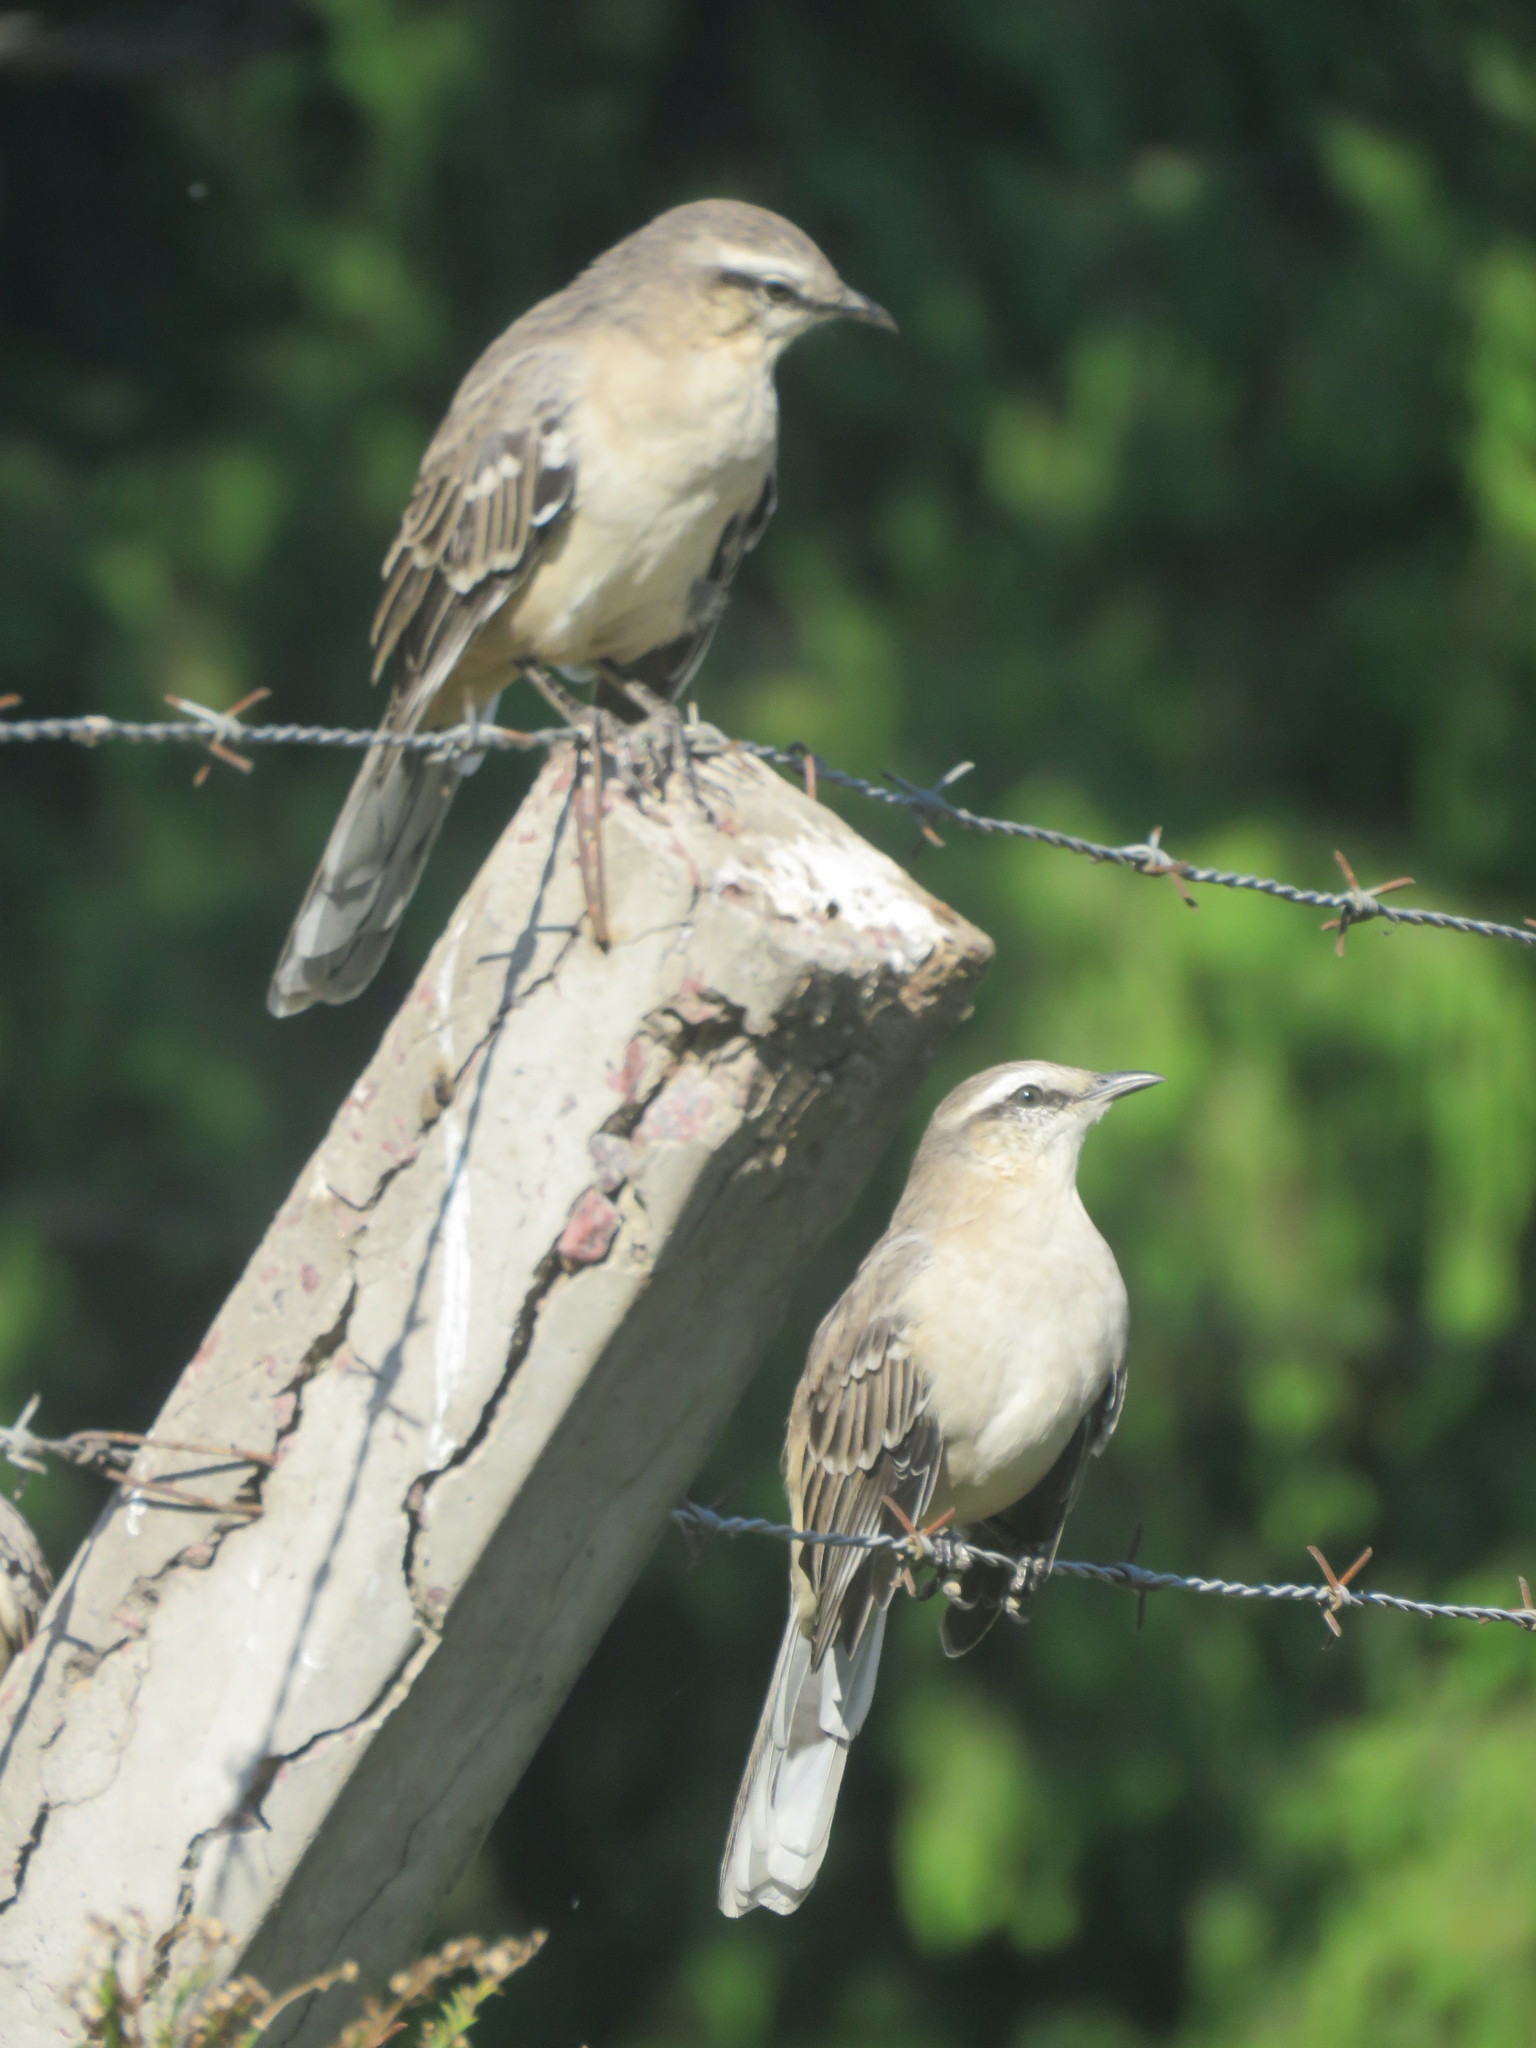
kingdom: Animalia
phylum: Chordata
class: Aves
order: Passeriformes
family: Mimidae
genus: Mimus
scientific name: Mimus saturninus
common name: Chalk-browed mockingbird
